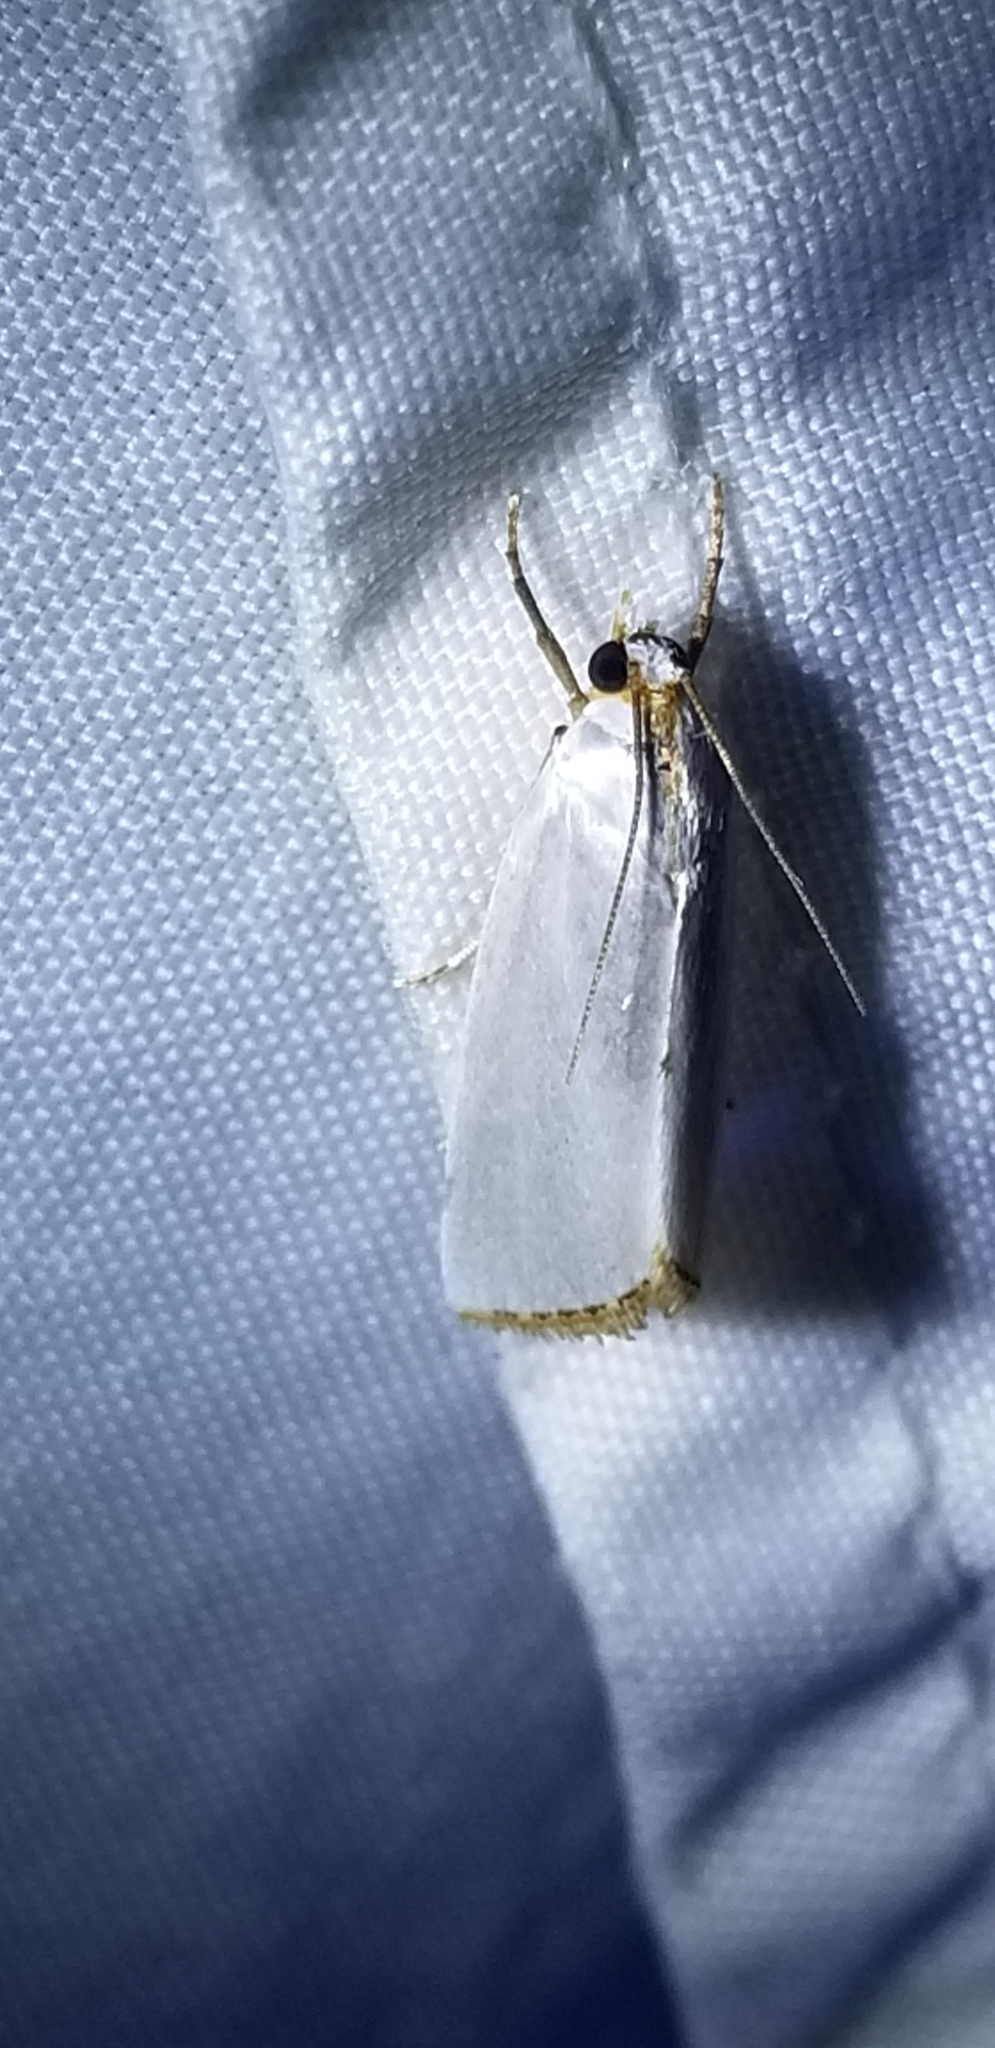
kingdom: Animalia
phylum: Arthropoda
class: Insecta
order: Lepidoptera
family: Crambidae
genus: Argyria
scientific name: Argyria nivalis
